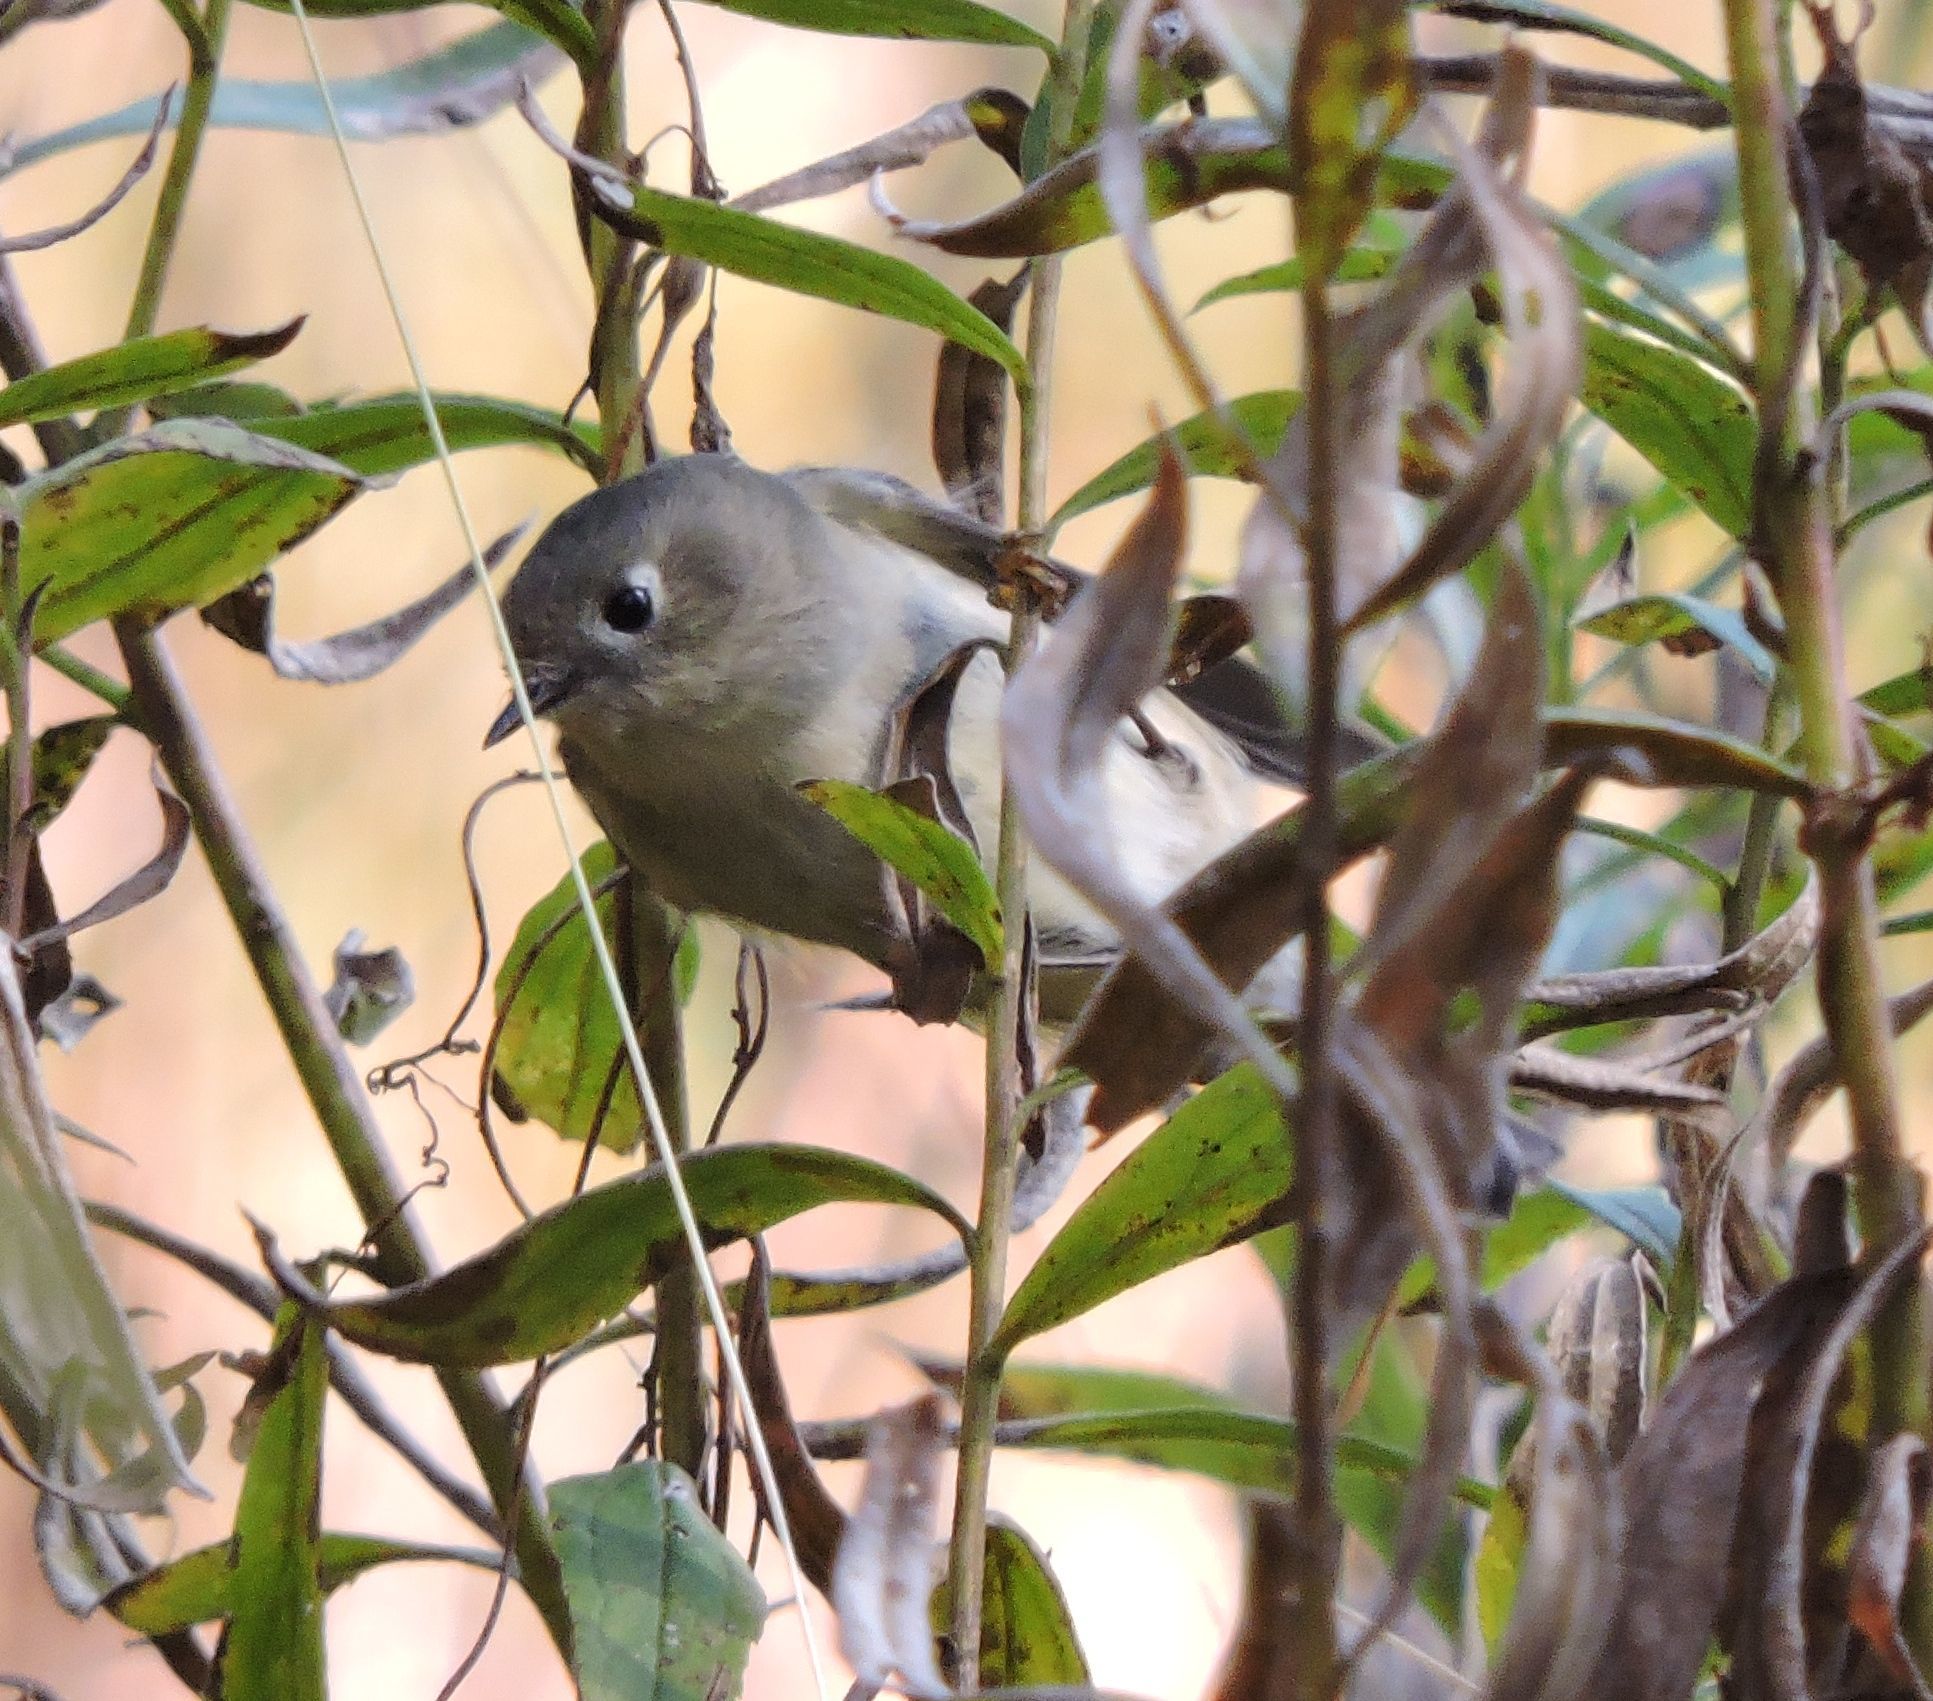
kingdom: Animalia
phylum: Chordata
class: Aves
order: Passeriformes
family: Regulidae
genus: Regulus
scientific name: Regulus calendula
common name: Ruby-crowned kinglet
